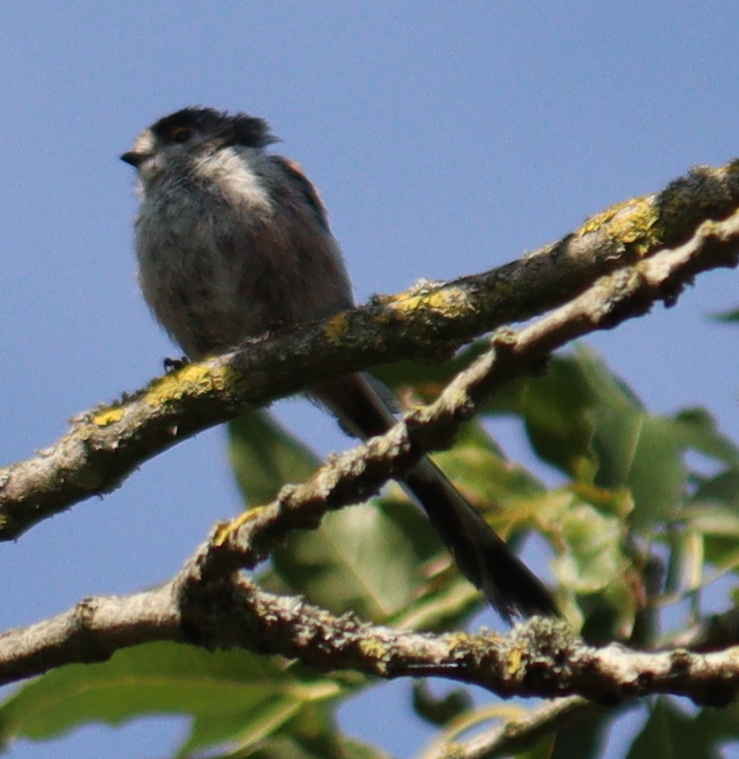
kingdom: Animalia
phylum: Chordata
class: Aves
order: Passeriformes
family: Aegithalidae
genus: Aegithalos
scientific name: Aegithalos caudatus
